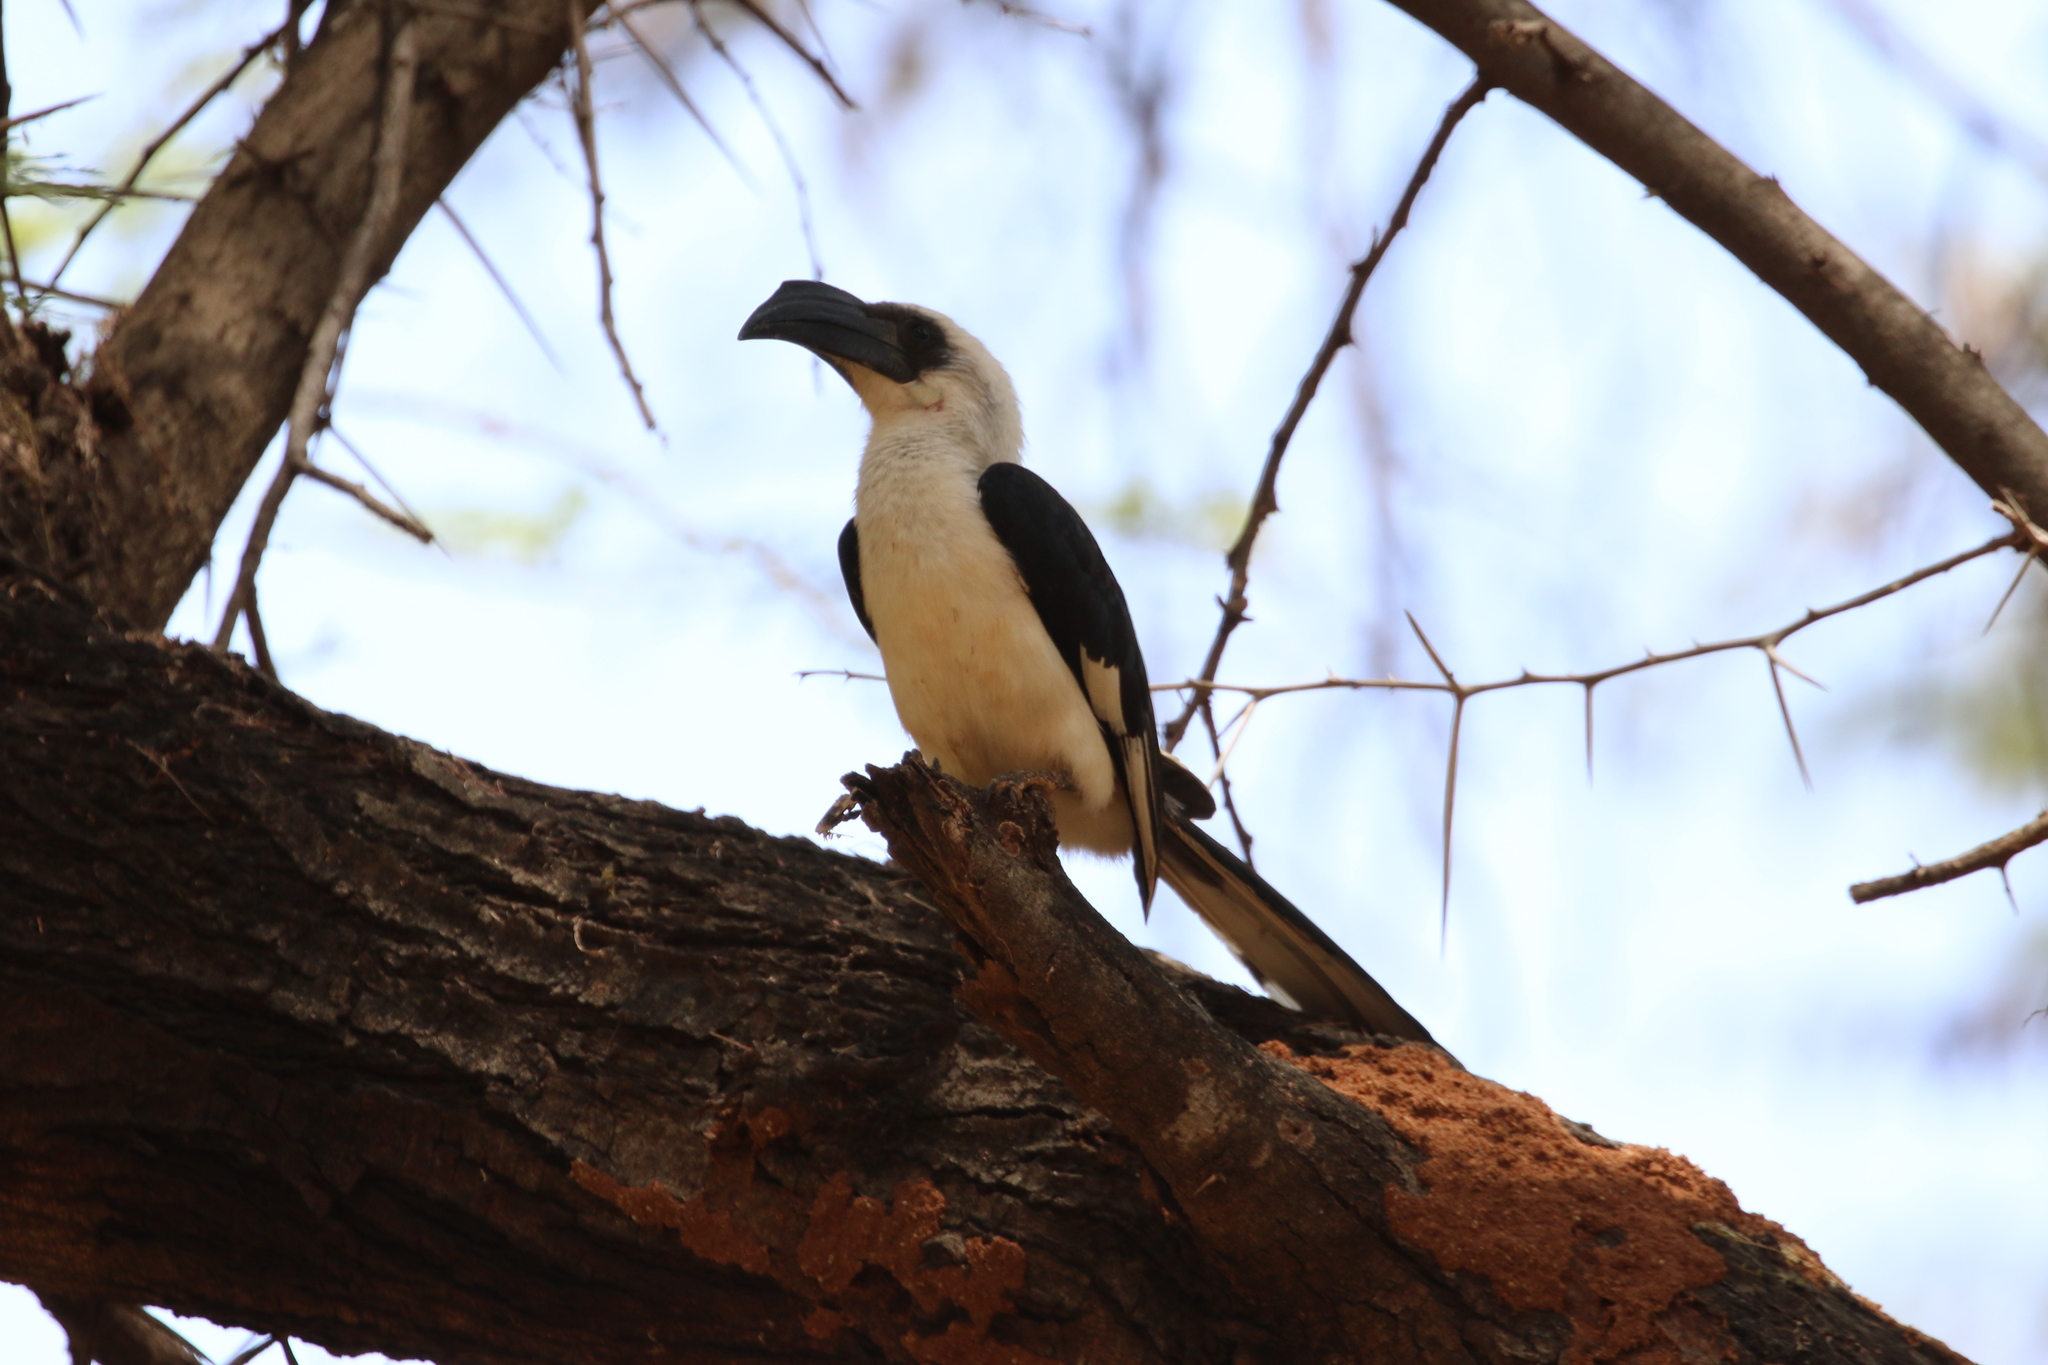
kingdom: Animalia
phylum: Chordata
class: Aves
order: Bucerotiformes
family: Bucerotidae
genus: Tockus
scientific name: Tockus deckeni
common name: Von der decken's hornbill
